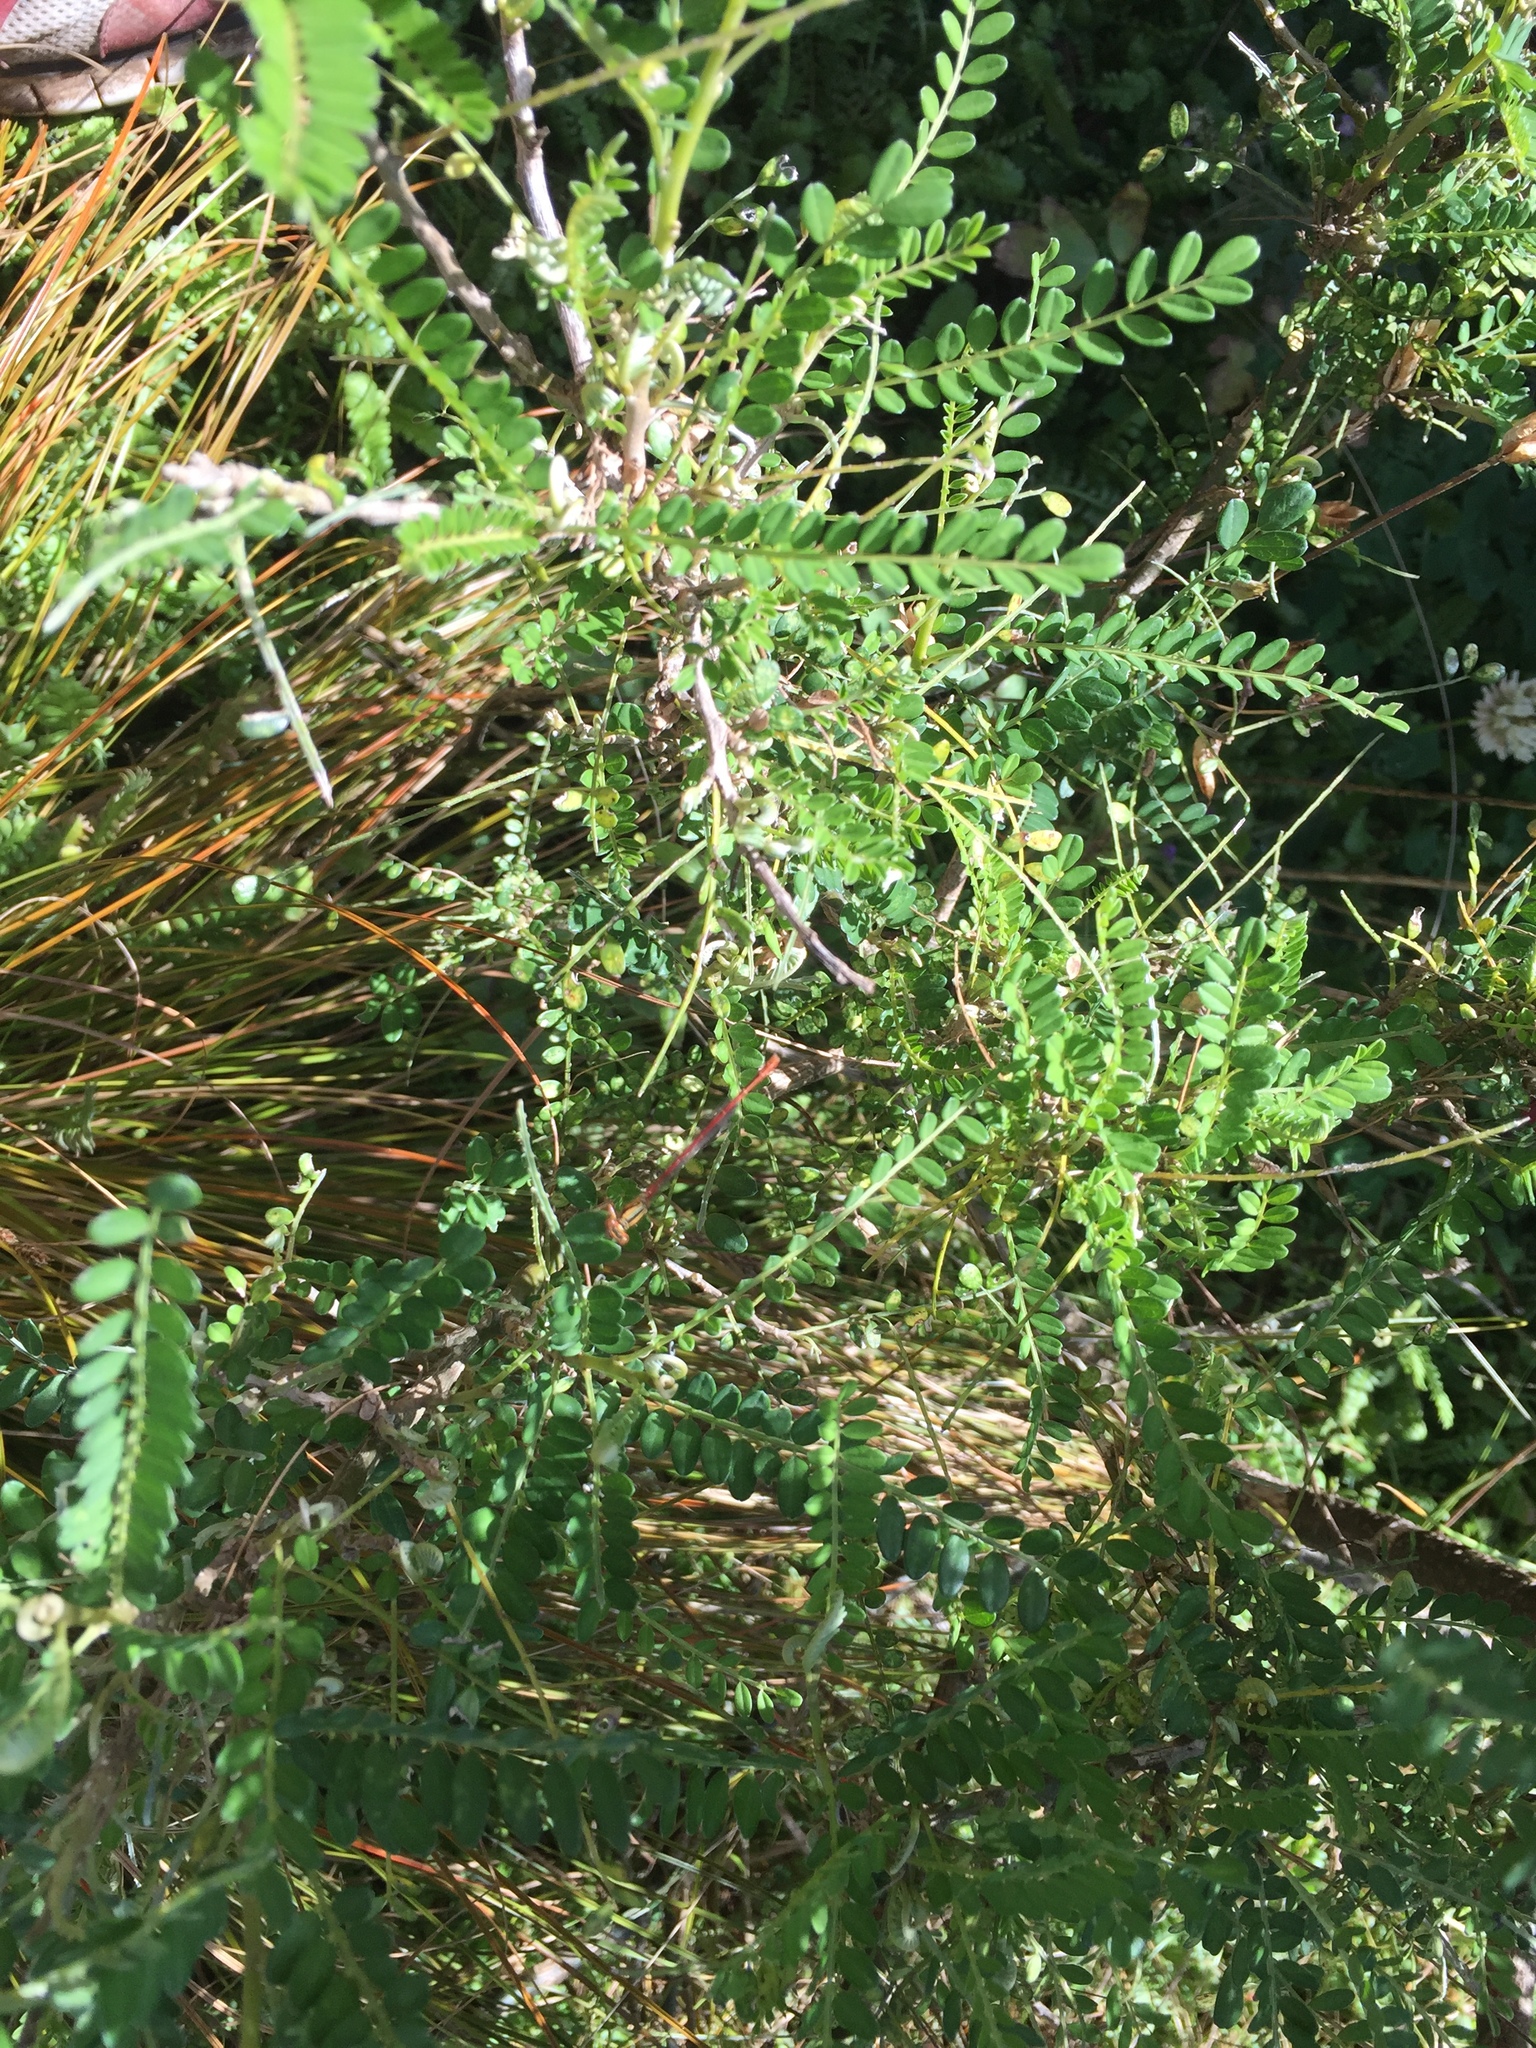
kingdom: Animalia
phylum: Arthropoda
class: Insecta
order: Odonata
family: Coenagrionidae
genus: Xanthocnemis
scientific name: Xanthocnemis zealandica
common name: Common redcoat damselfly
